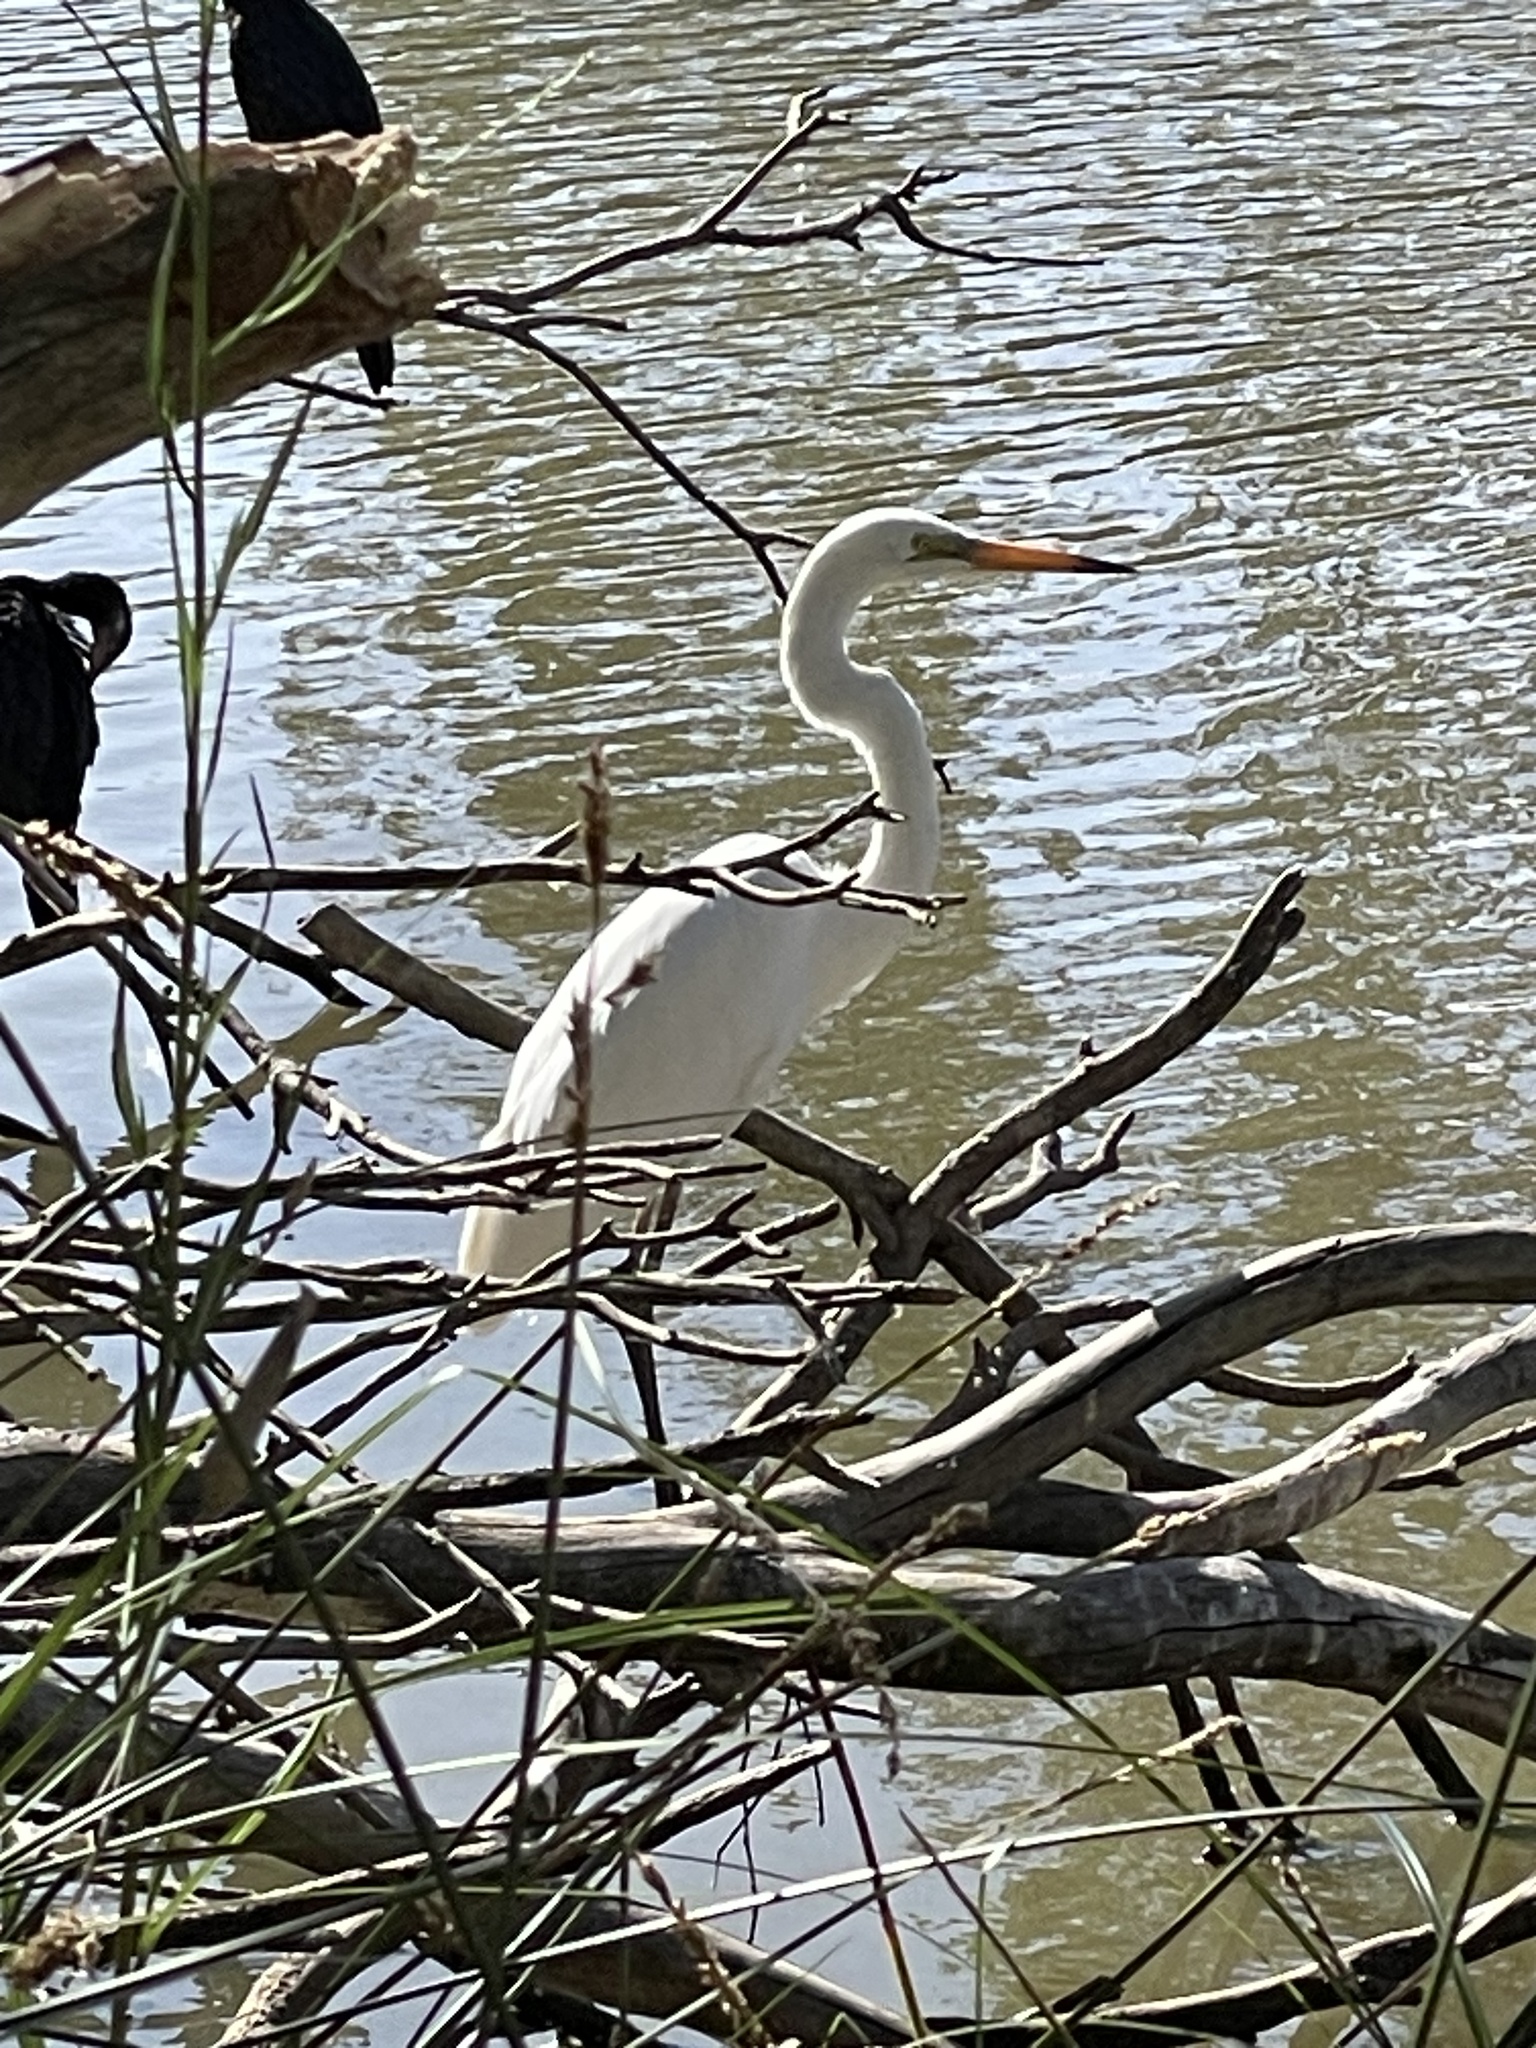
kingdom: Animalia
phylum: Chordata
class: Aves
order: Pelecaniformes
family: Ardeidae
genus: Ardea
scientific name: Ardea alba
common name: Great egret
